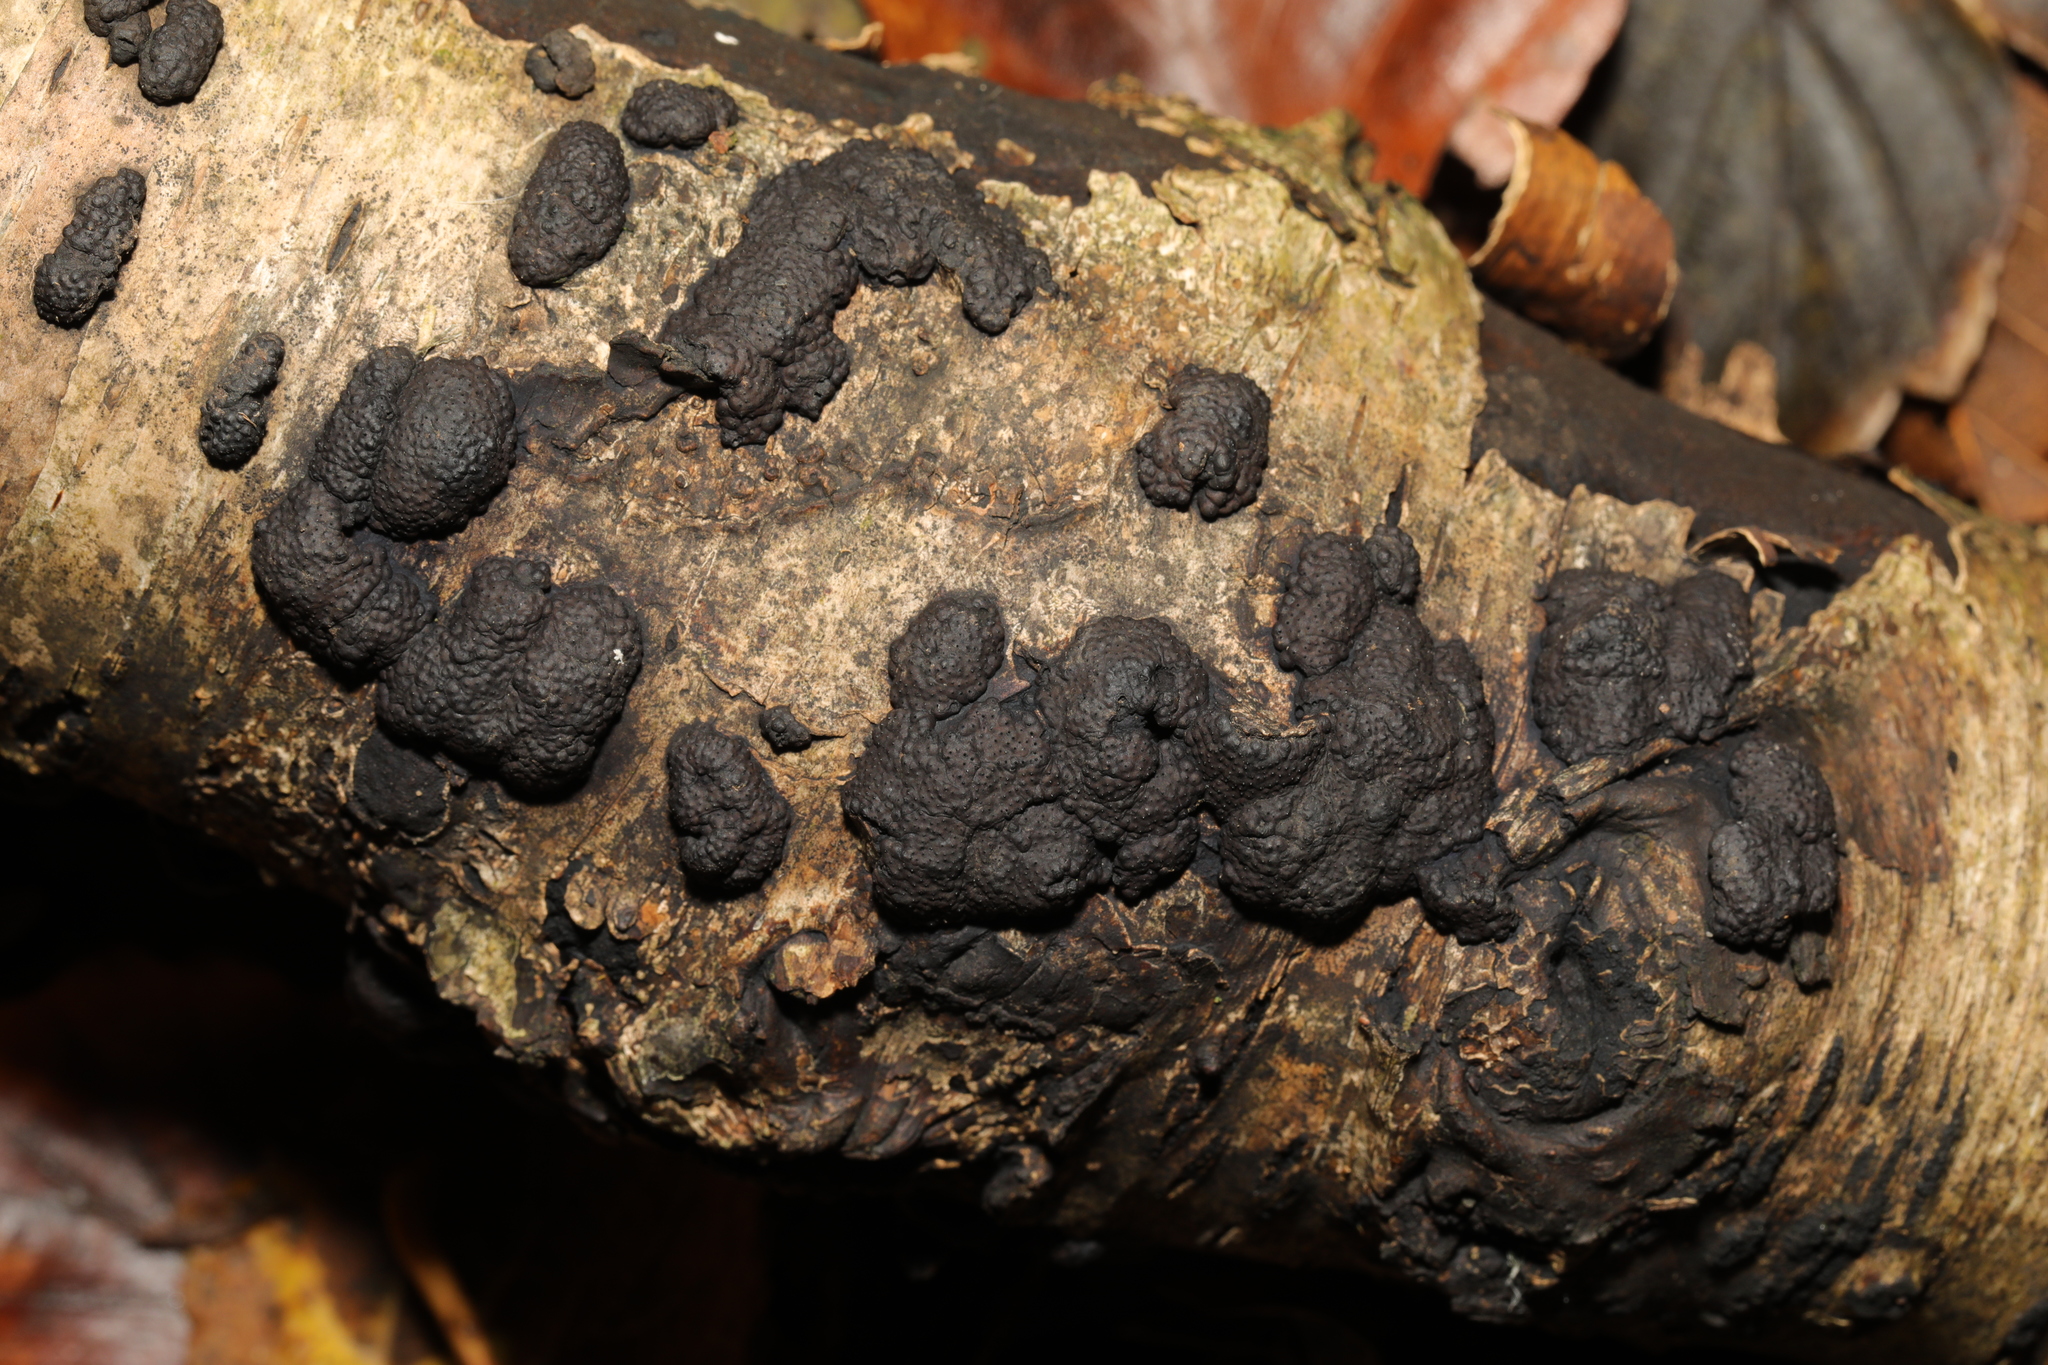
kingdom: Fungi
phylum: Ascomycota
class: Sordariomycetes
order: Xylariales
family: Hypoxylaceae
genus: Jackrogersella
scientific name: Jackrogersella multiformis
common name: Birch woodwart
